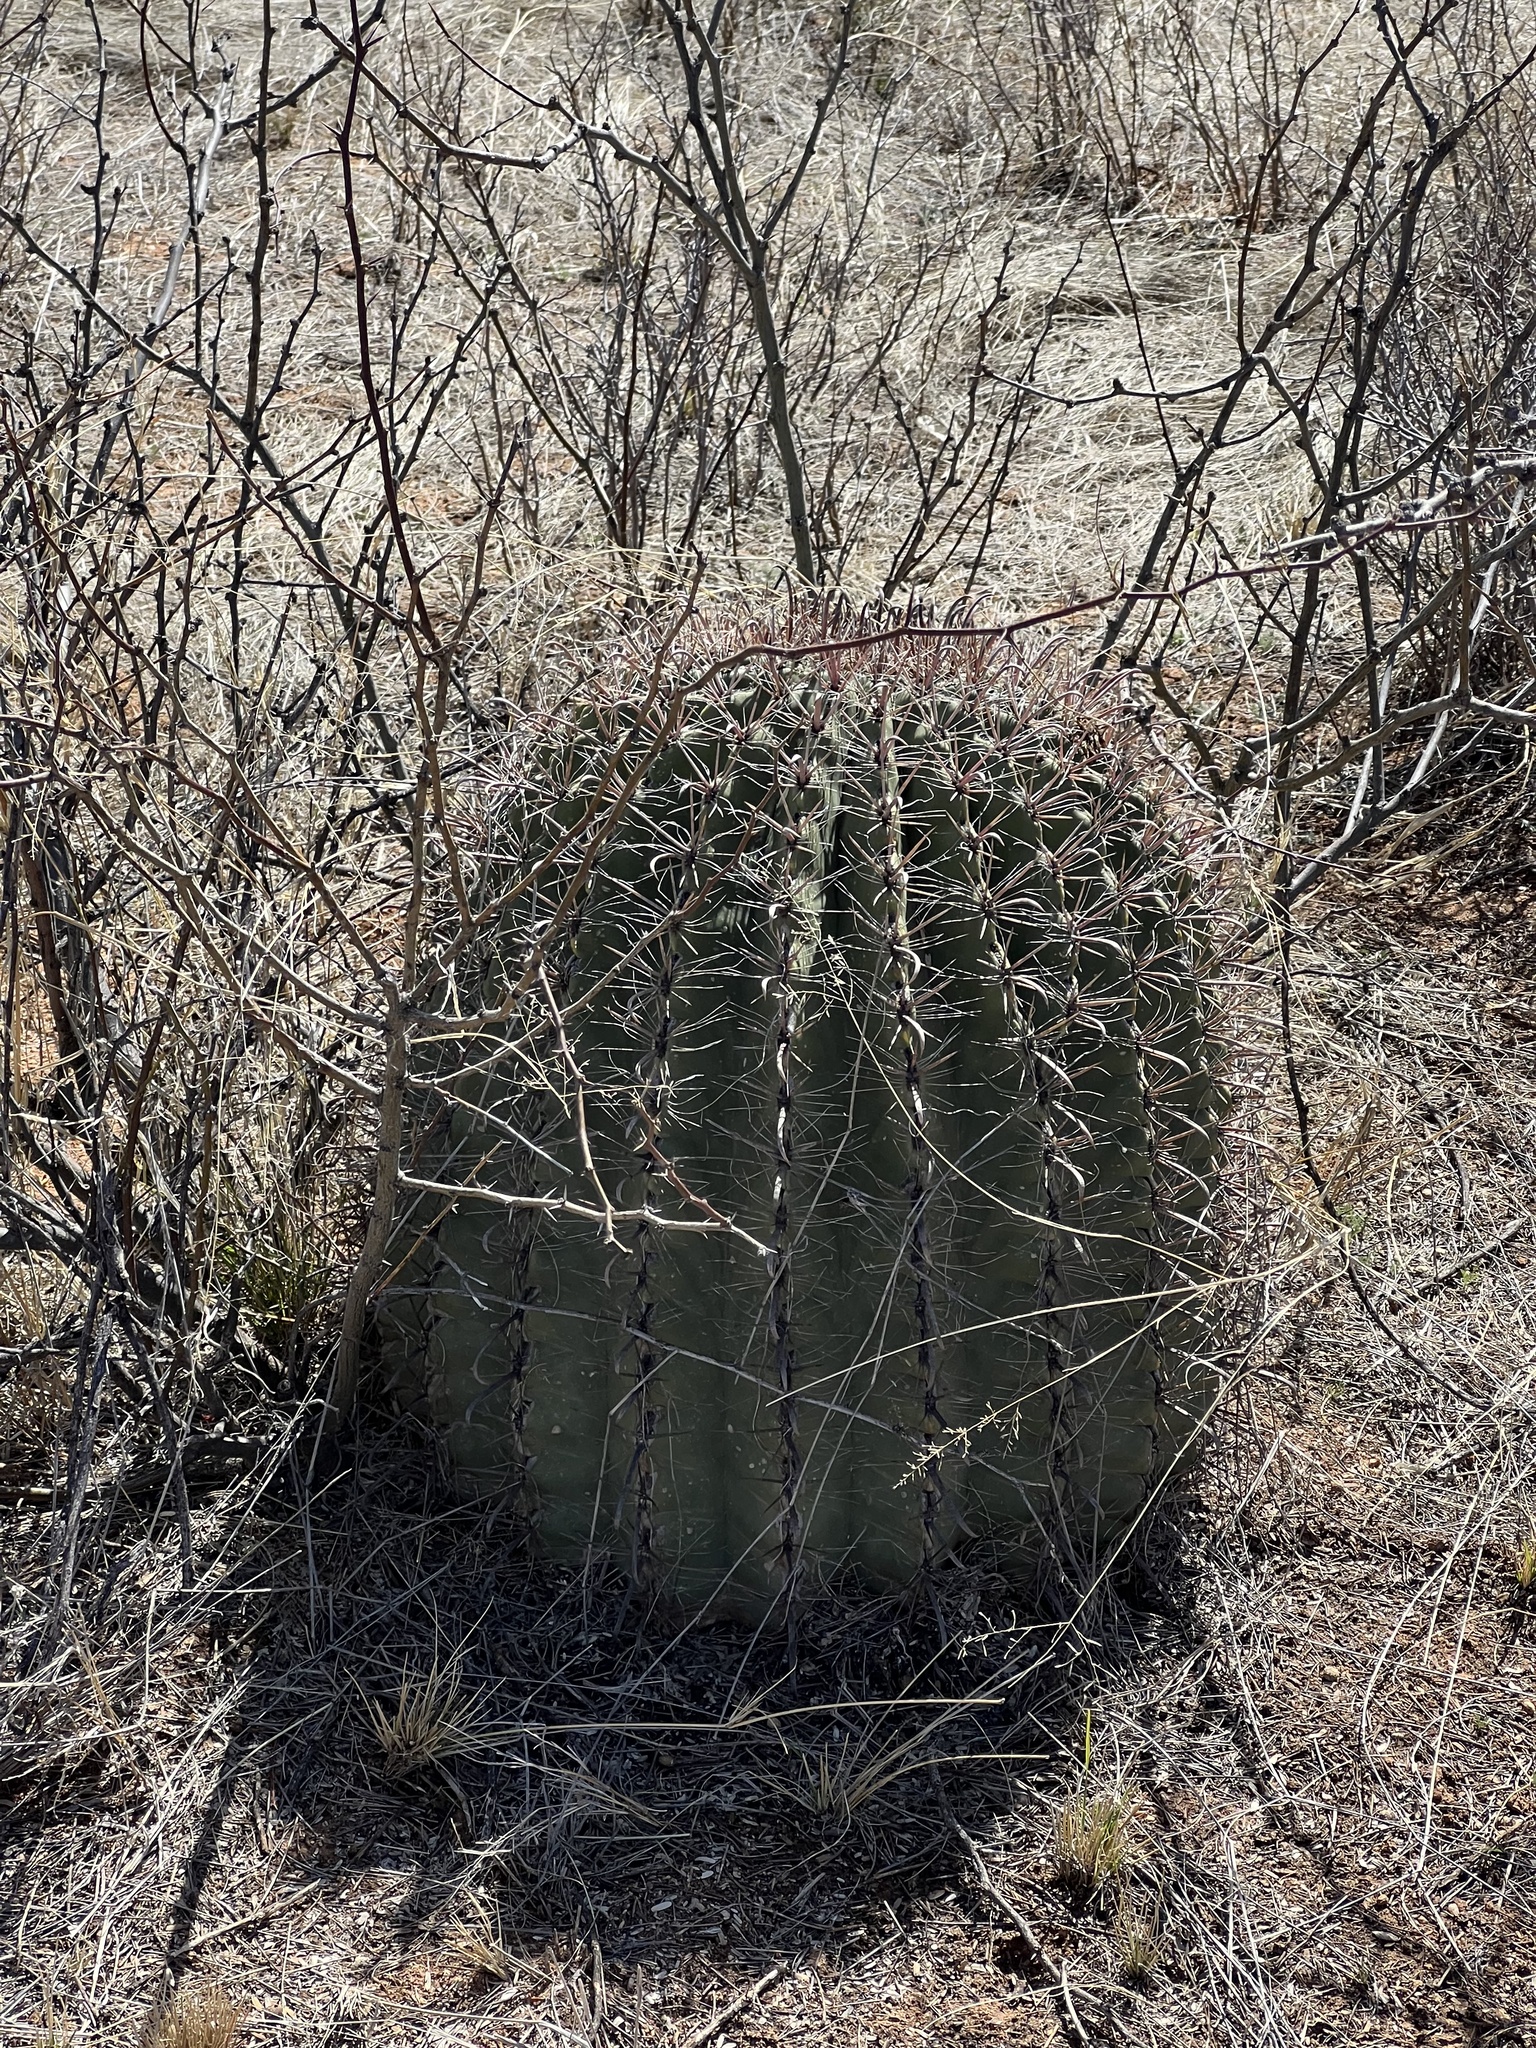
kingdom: Plantae
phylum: Tracheophyta
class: Magnoliopsida
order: Caryophyllales
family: Cactaceae
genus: Ferocactus
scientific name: Ferocactus wislizeni
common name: Candy barrel cactus
